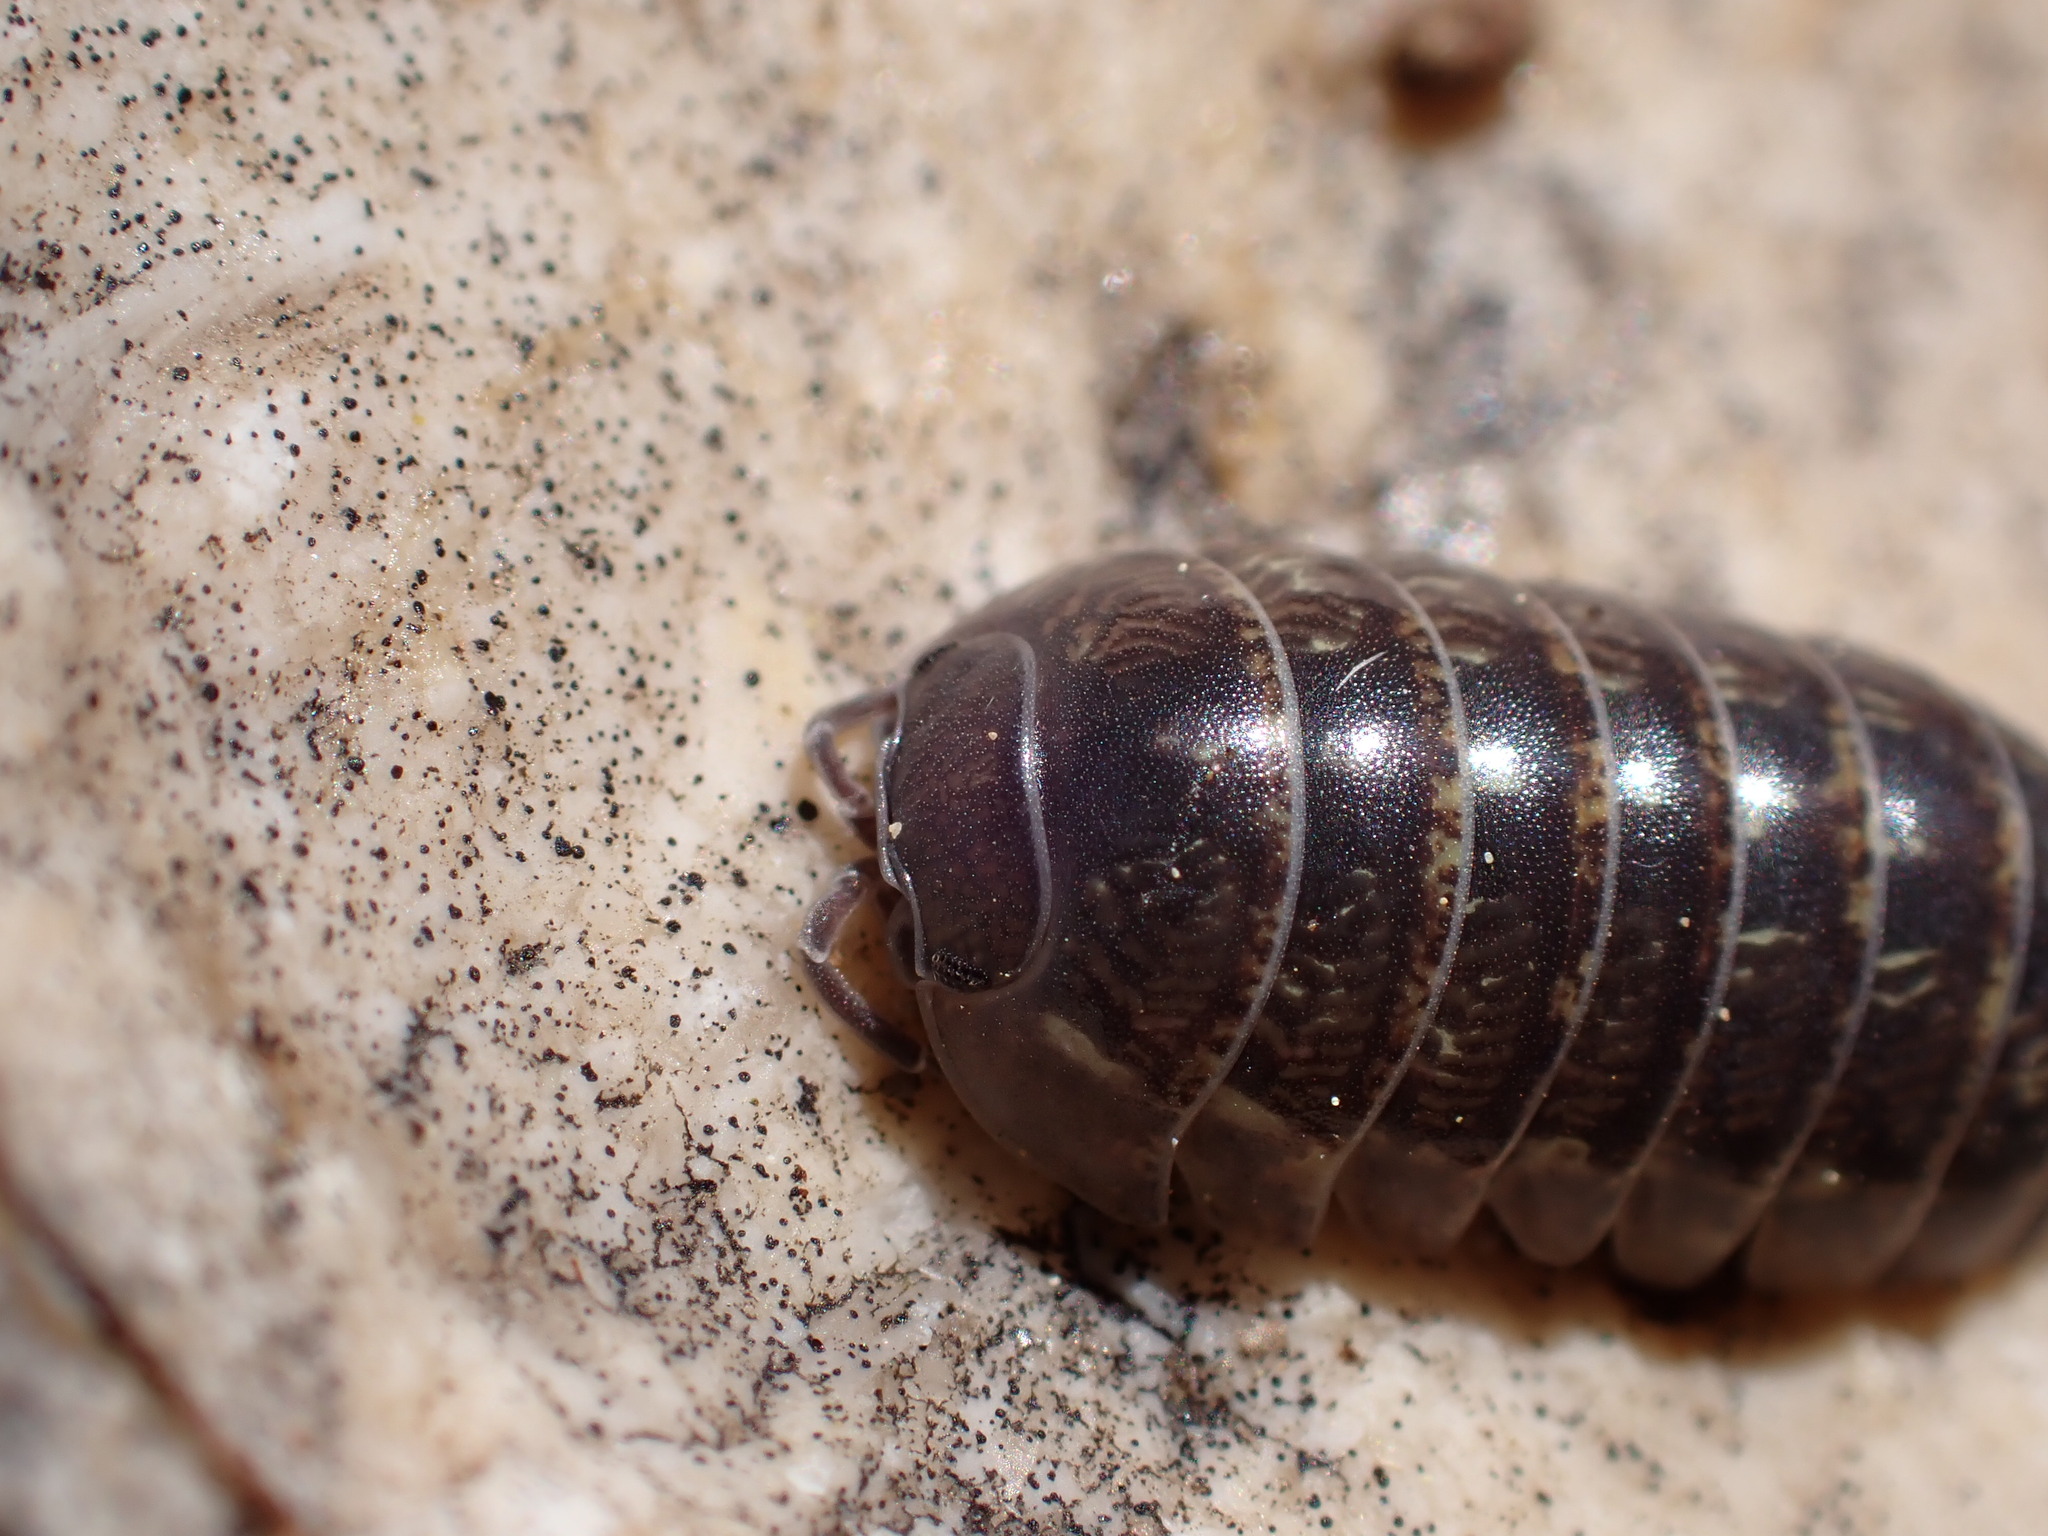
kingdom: Animalia
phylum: Arthropoda
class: Malacostraca
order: Isopoda
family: Armadillidiidae
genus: Armadillidium
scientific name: Armadillidium vulgare
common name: Common pill woodlouse
